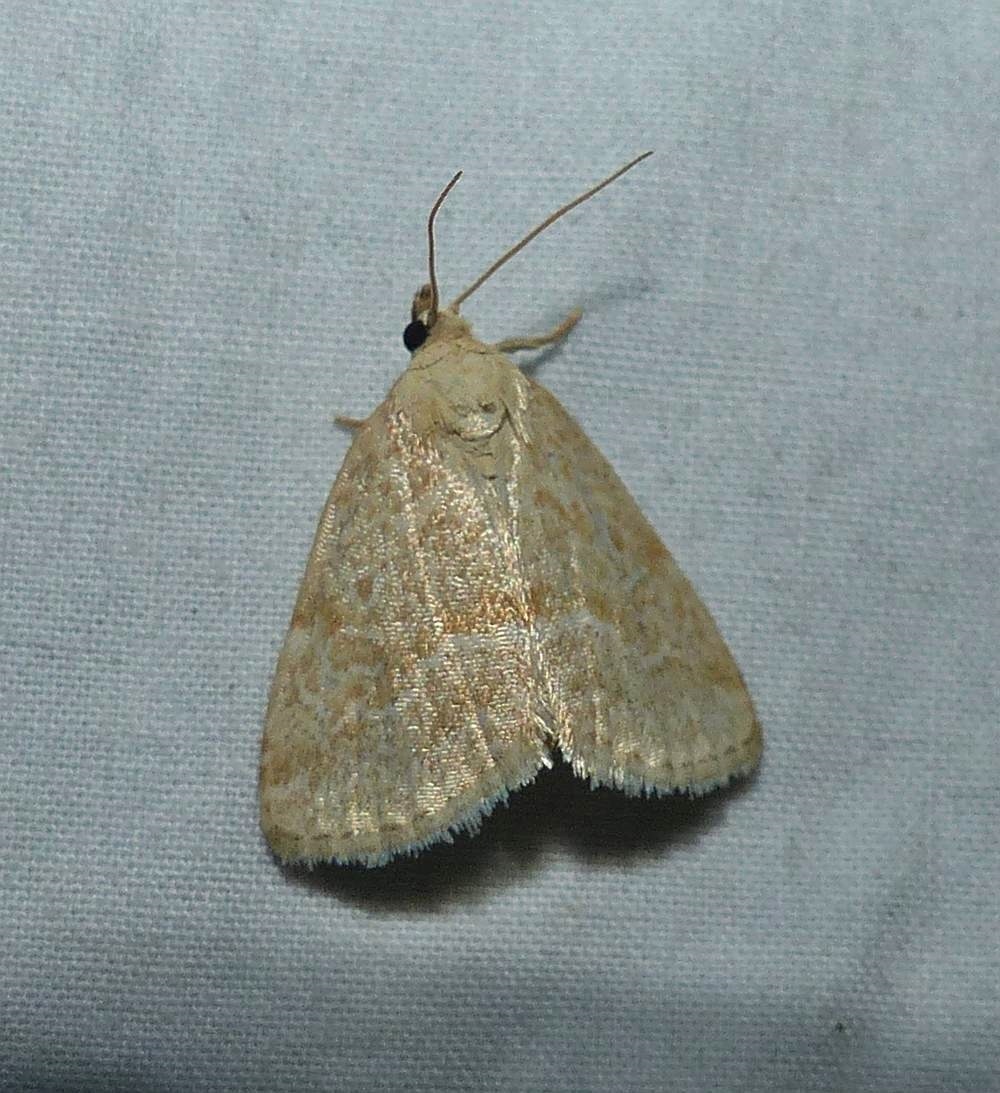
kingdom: Animalia
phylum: Arthropoda
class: Insecta
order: Lepidoptera
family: Noctuidae
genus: Protodeltote
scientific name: Protodeltote albidula
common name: Pale glyph
